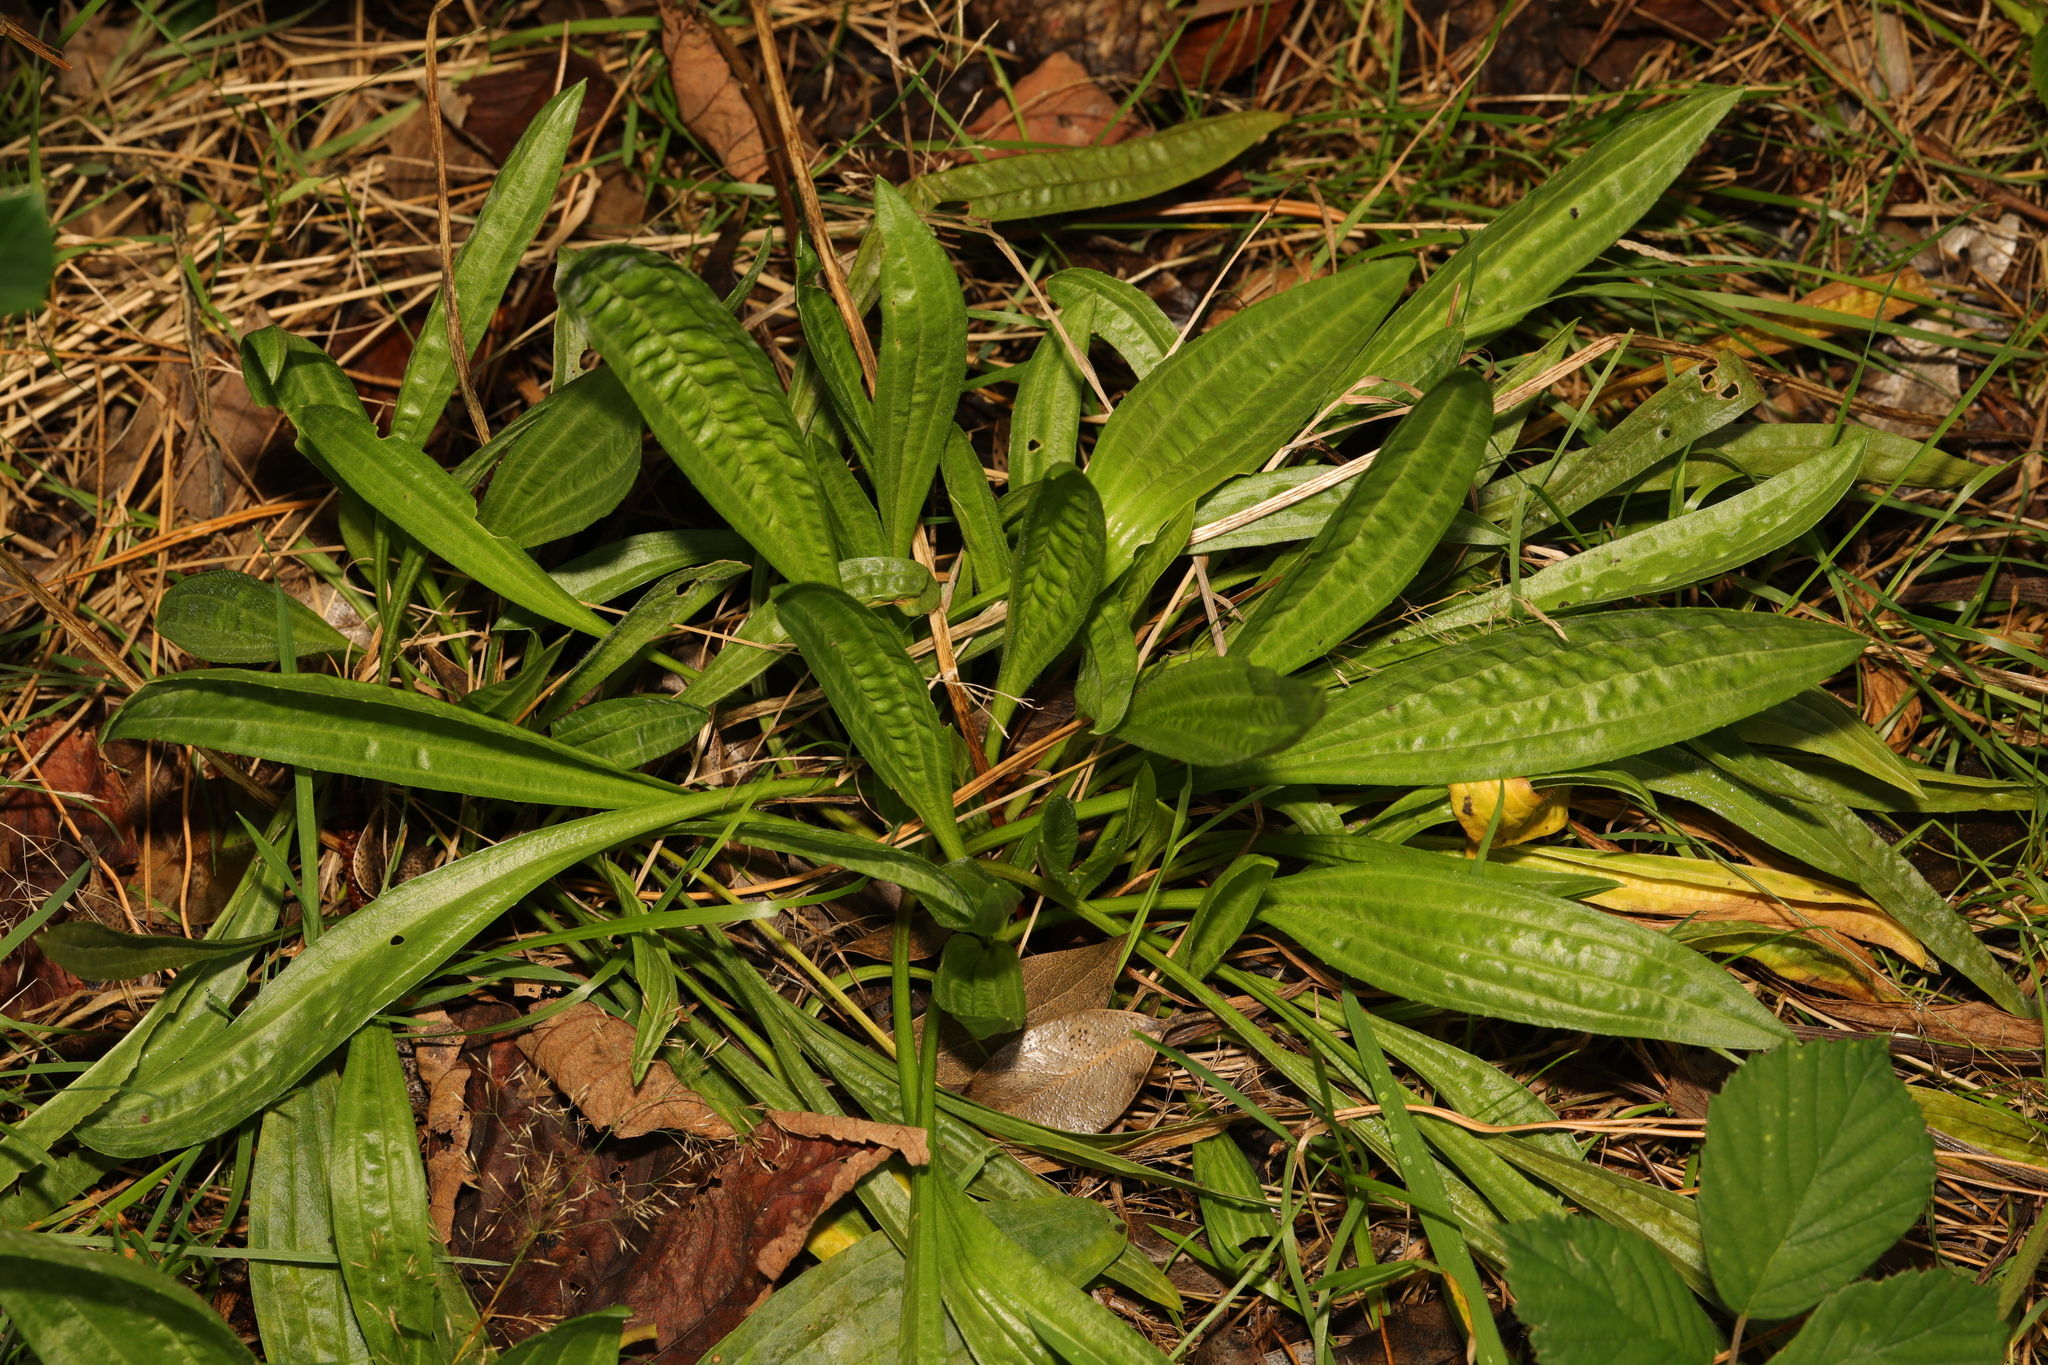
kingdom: Plantae
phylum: Tracheophyta
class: Magnoliopsida
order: Lamiales
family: Plantaginaceae
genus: Plantago
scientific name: Plantago lanceolata
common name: Ribwort plantain
